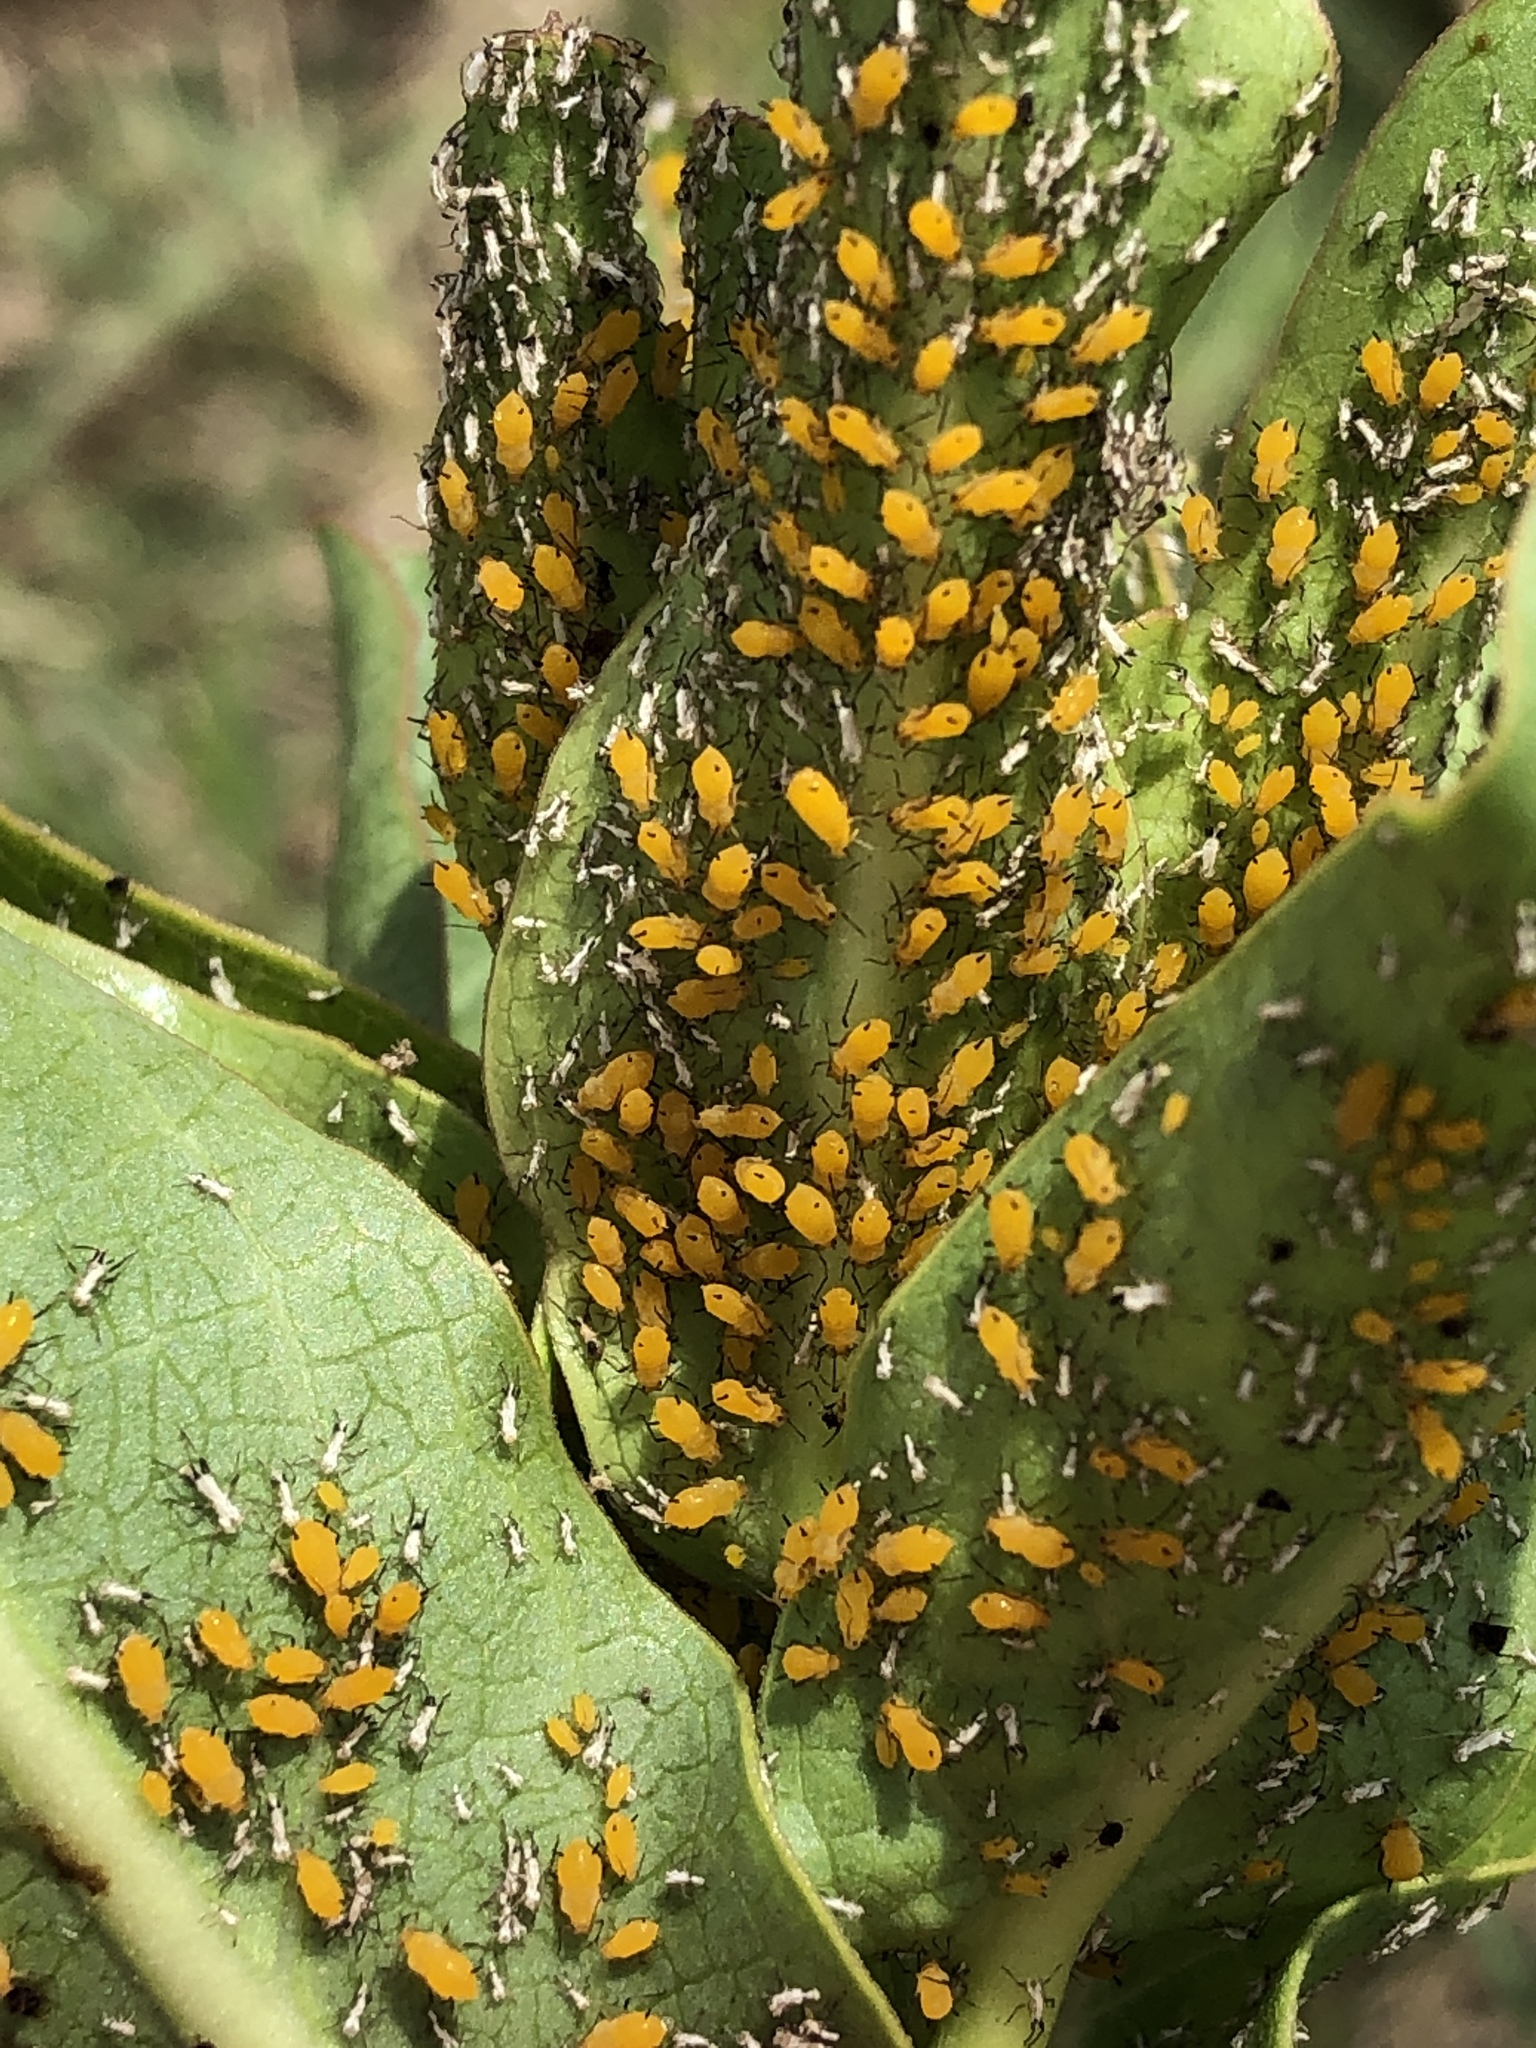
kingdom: Animalia
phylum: Arthropoda
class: Insecta
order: Hemiptera
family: Aphididae
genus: Aphis
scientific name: Aphis nerii
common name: Oleander aphid
